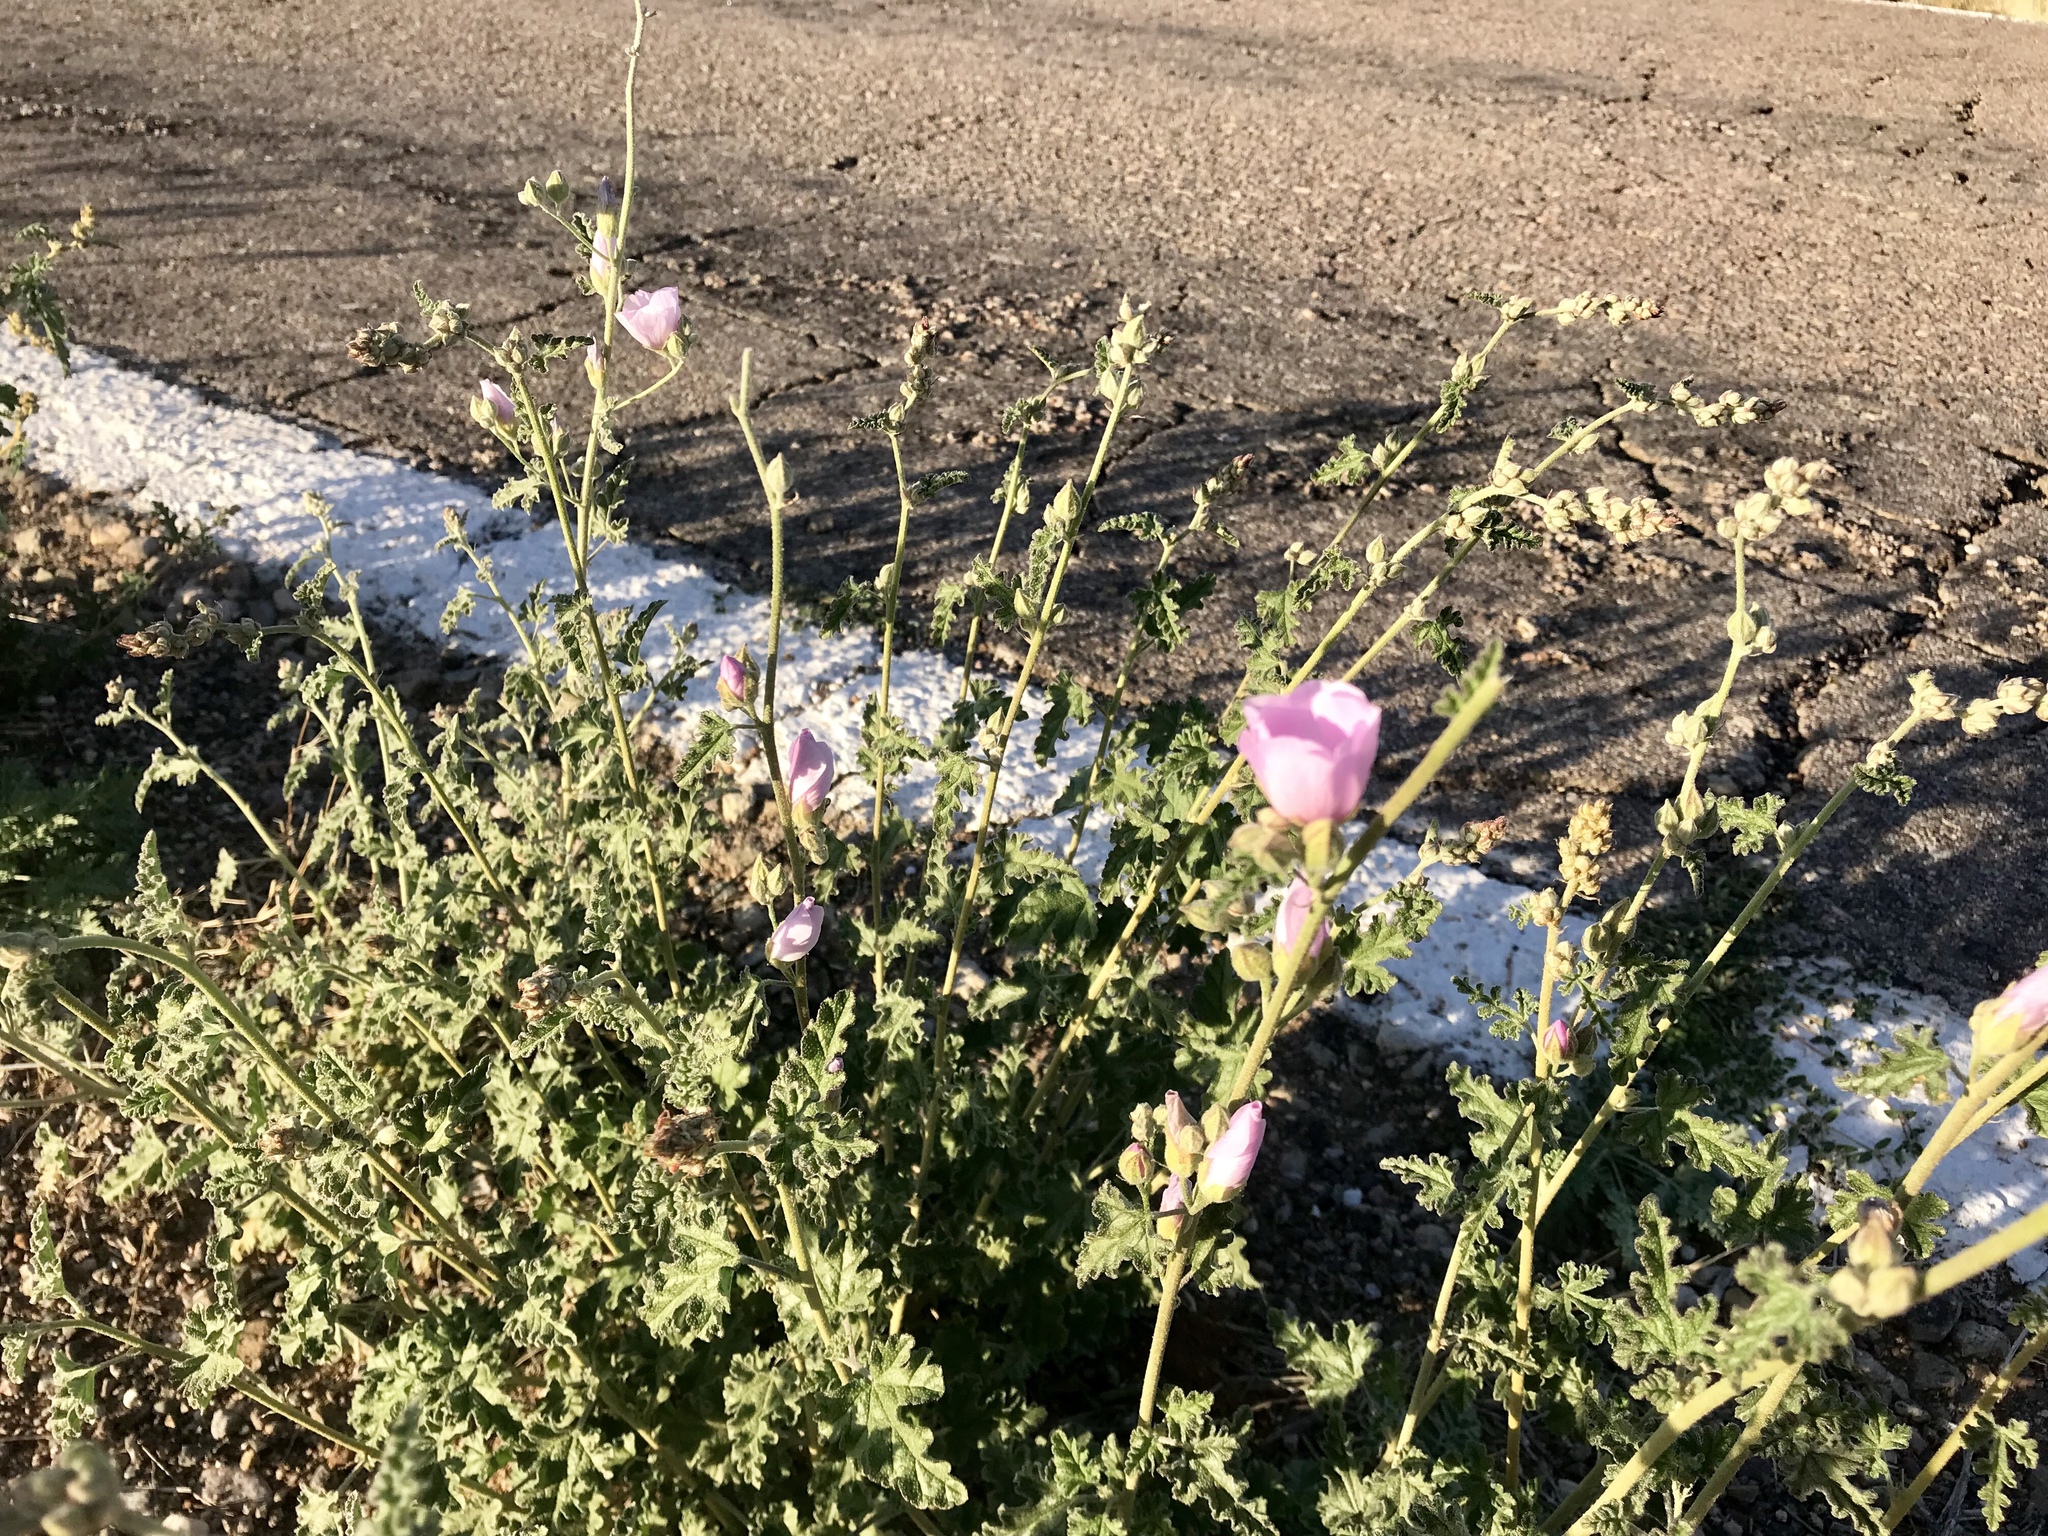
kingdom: Plantae
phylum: Tracheophyta
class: Magnoliopsida
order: Malvales
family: Malvaceae
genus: Sphaeralcea
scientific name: Sphaeralcea ambigua
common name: Apricot globe-mallow
